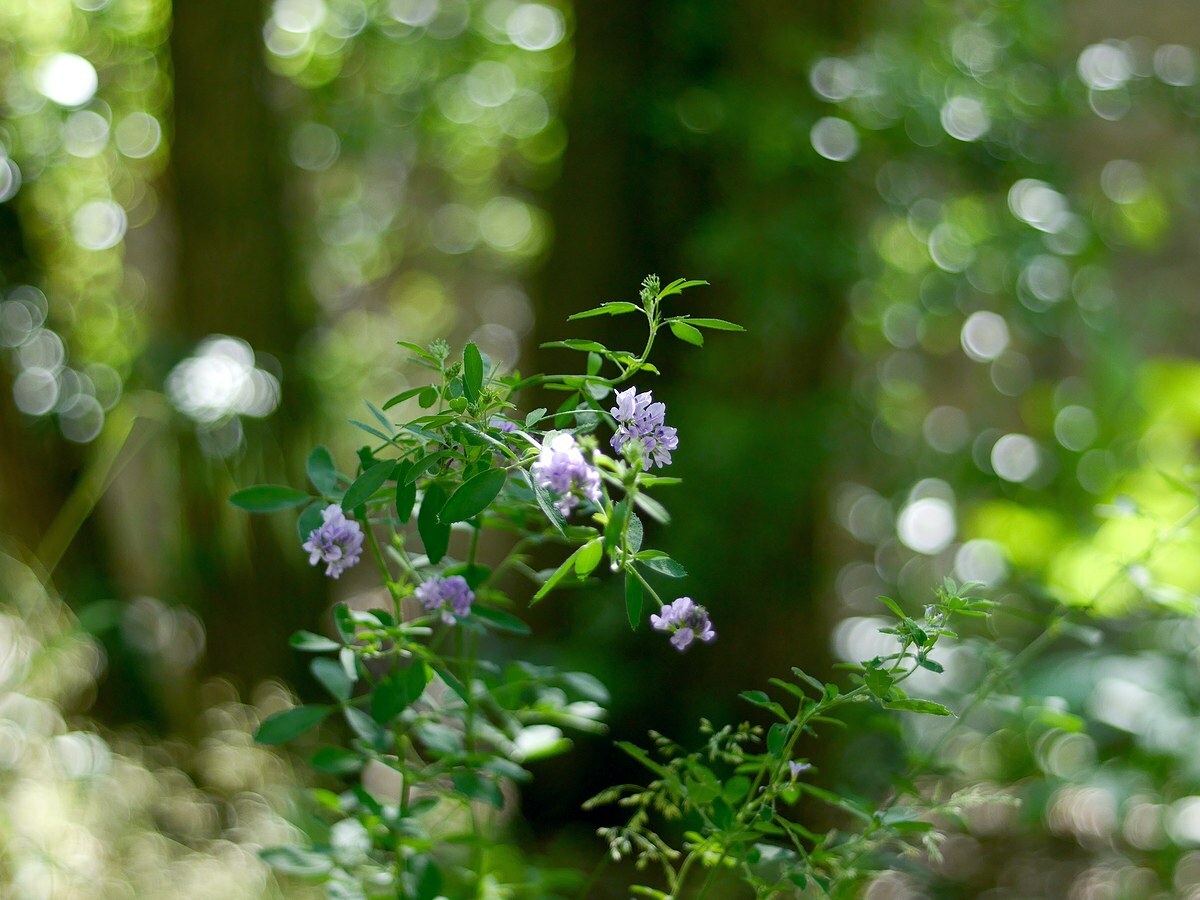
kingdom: Plantae
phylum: Tracheophyta
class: Magnoliopsida
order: Fabales
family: Fabaceae
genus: Medicago
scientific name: Medicago sativa
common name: Alfalfa
